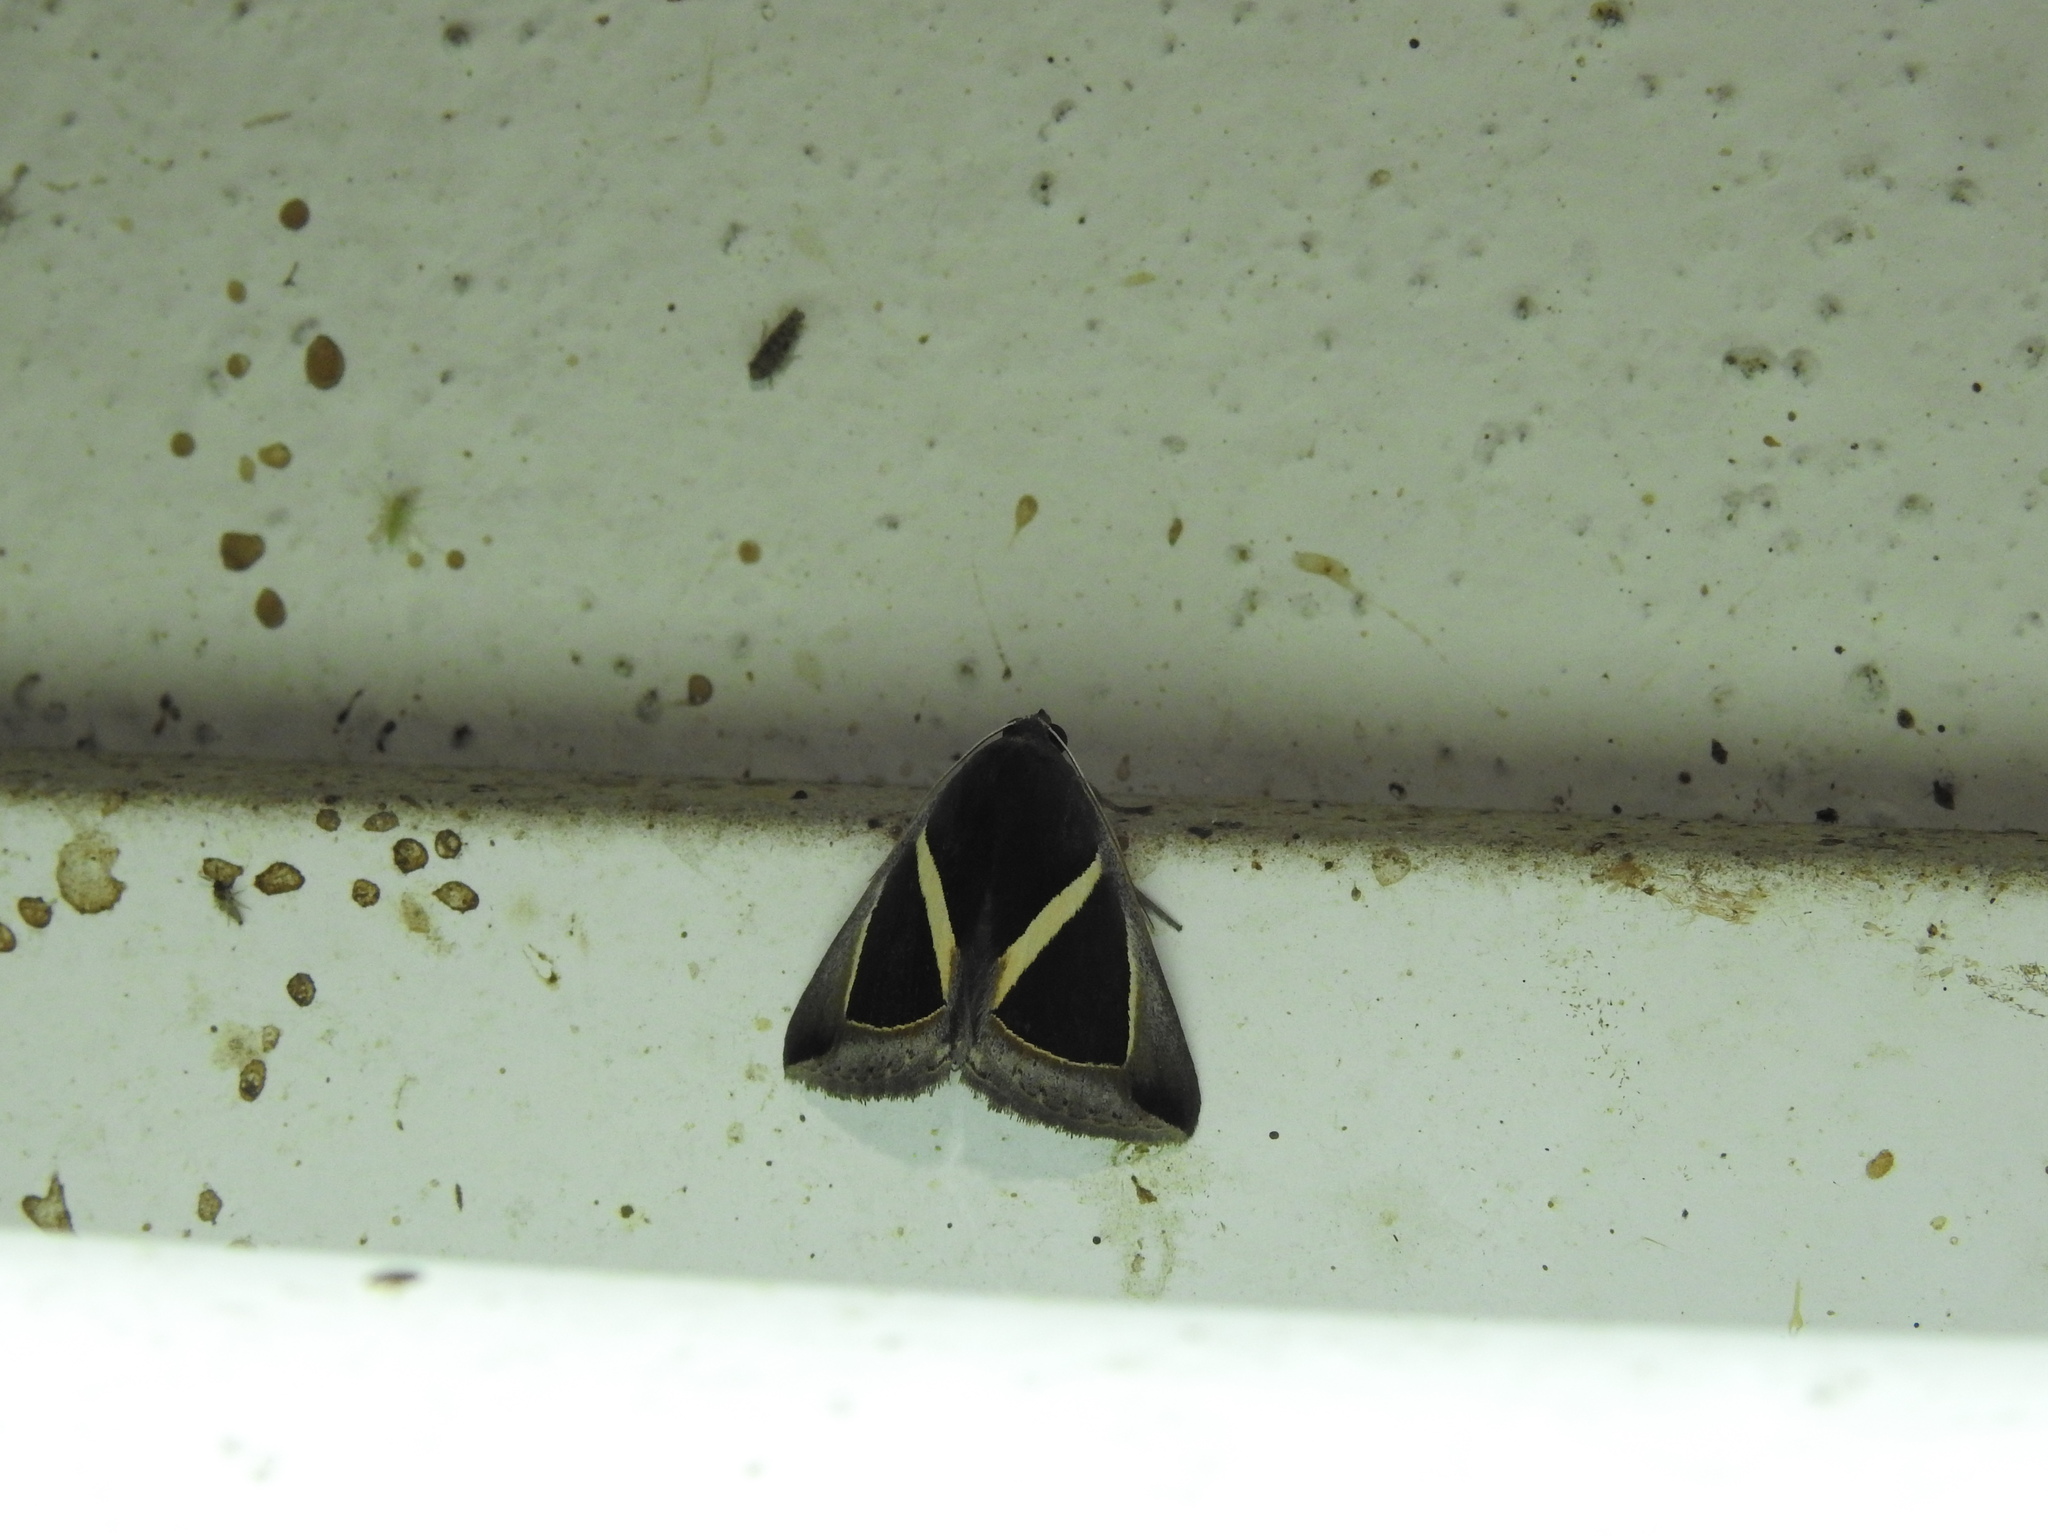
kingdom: Animalia
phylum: Arthropoda
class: Insecta
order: Lepidoptera
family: Erebidae
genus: Chalciope
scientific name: Chalciope mygdon
